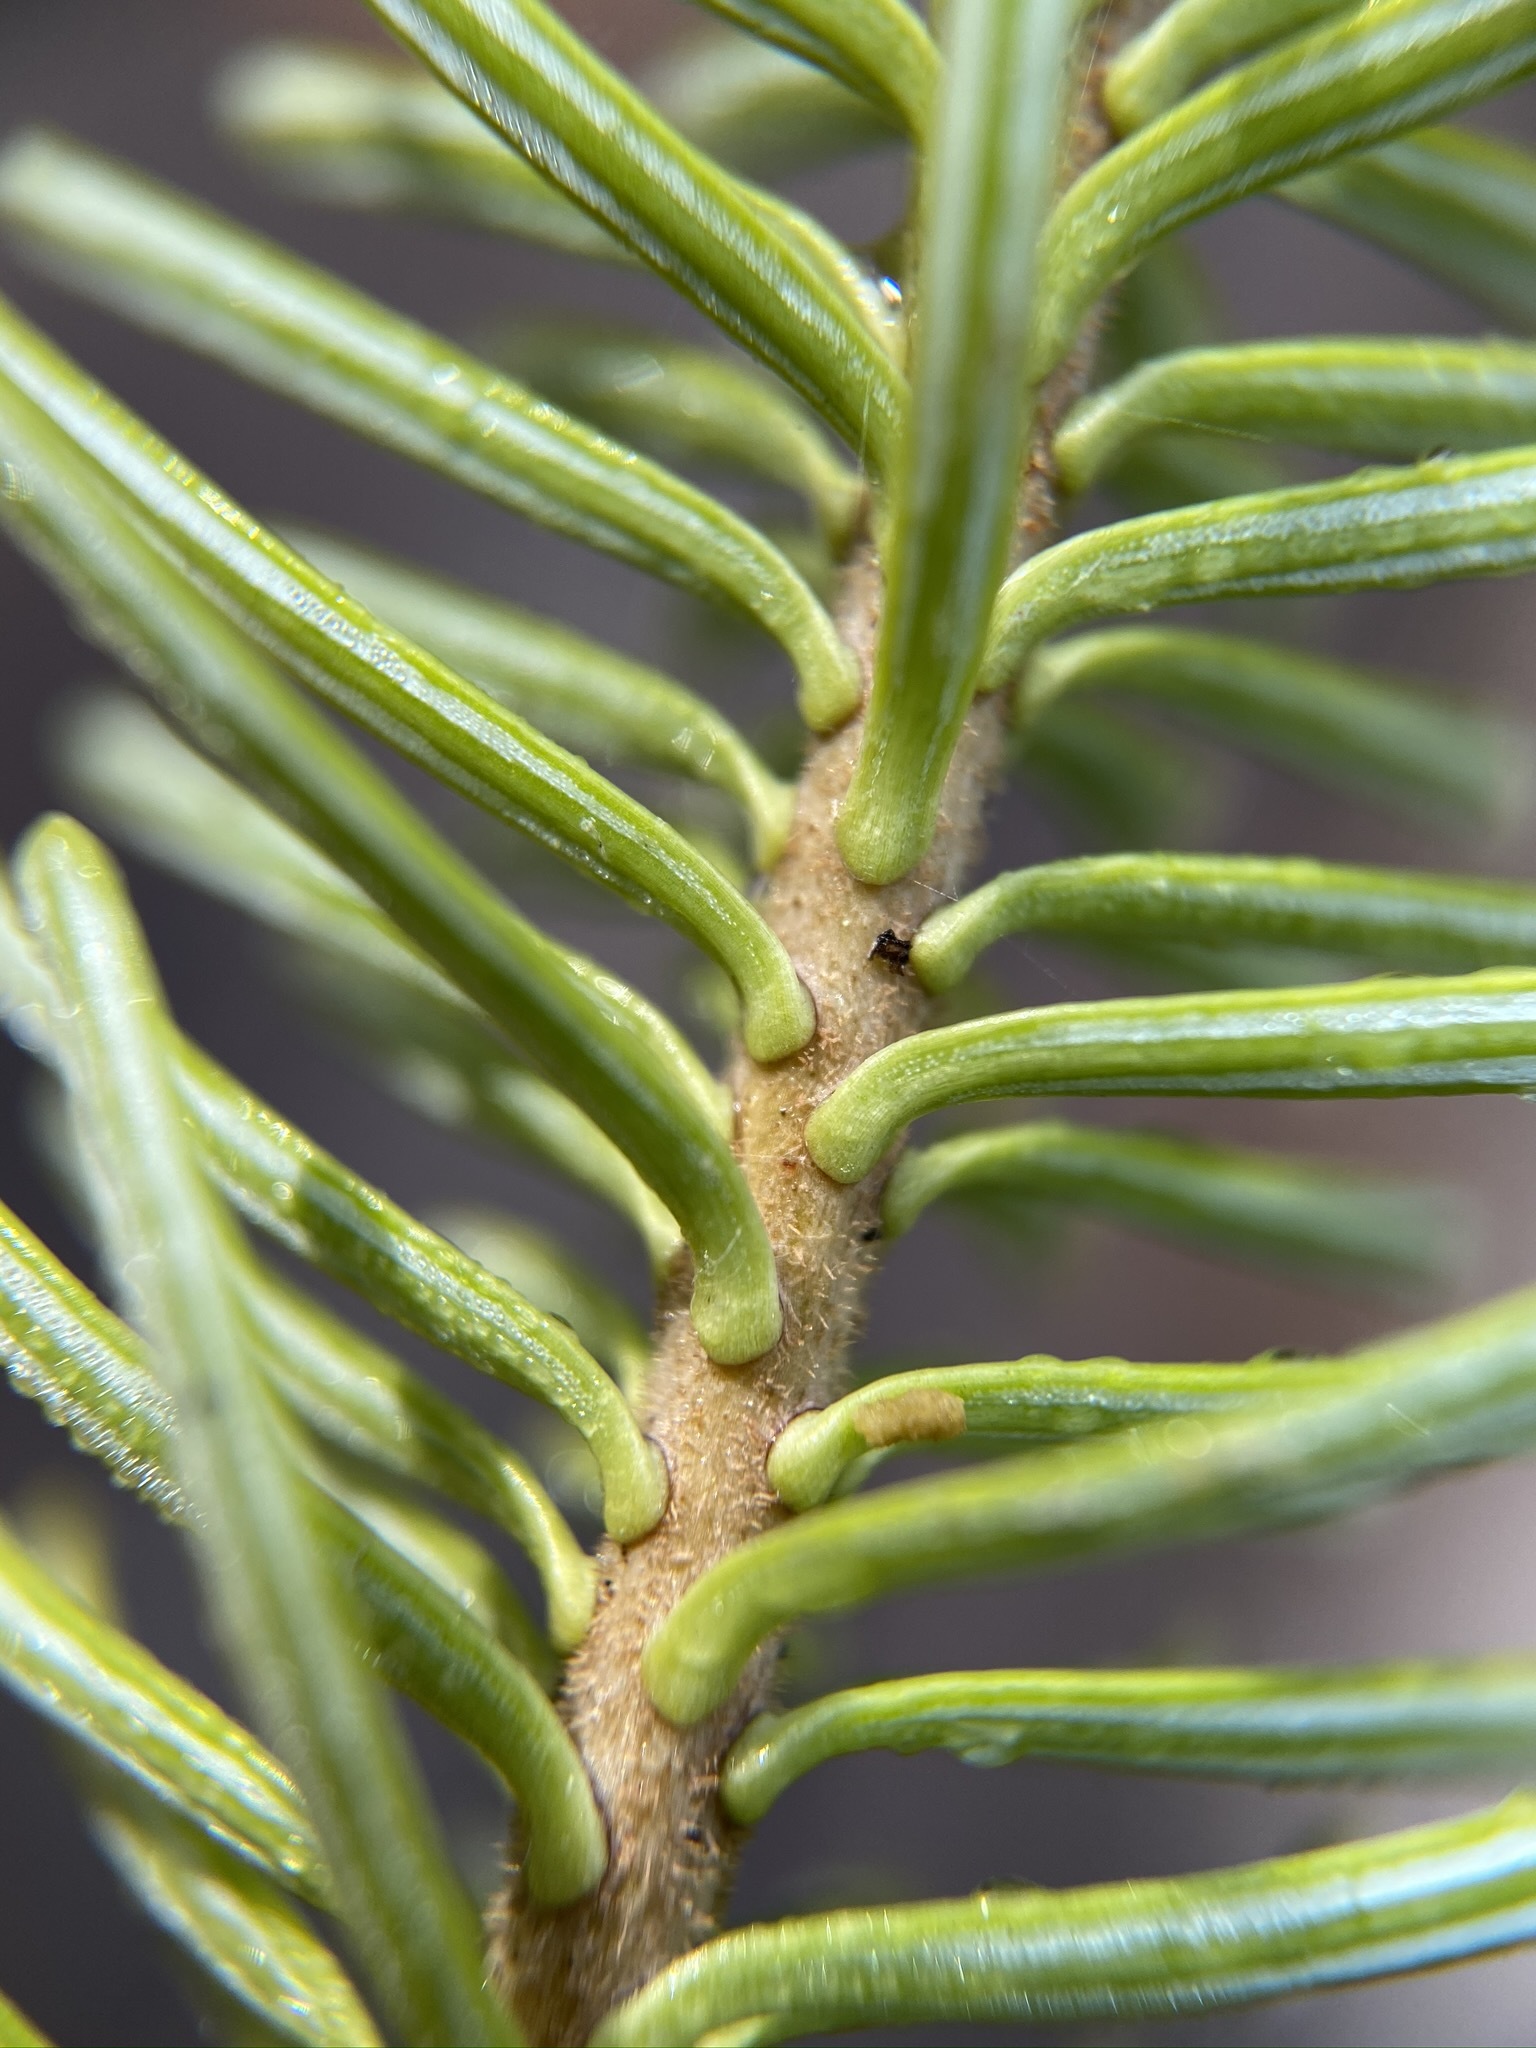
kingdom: Plantae
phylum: Tracheophyta
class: Pinopsida
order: Pinales
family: Pinaceae
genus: Abies
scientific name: Abies balsamea
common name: Balsam fir
